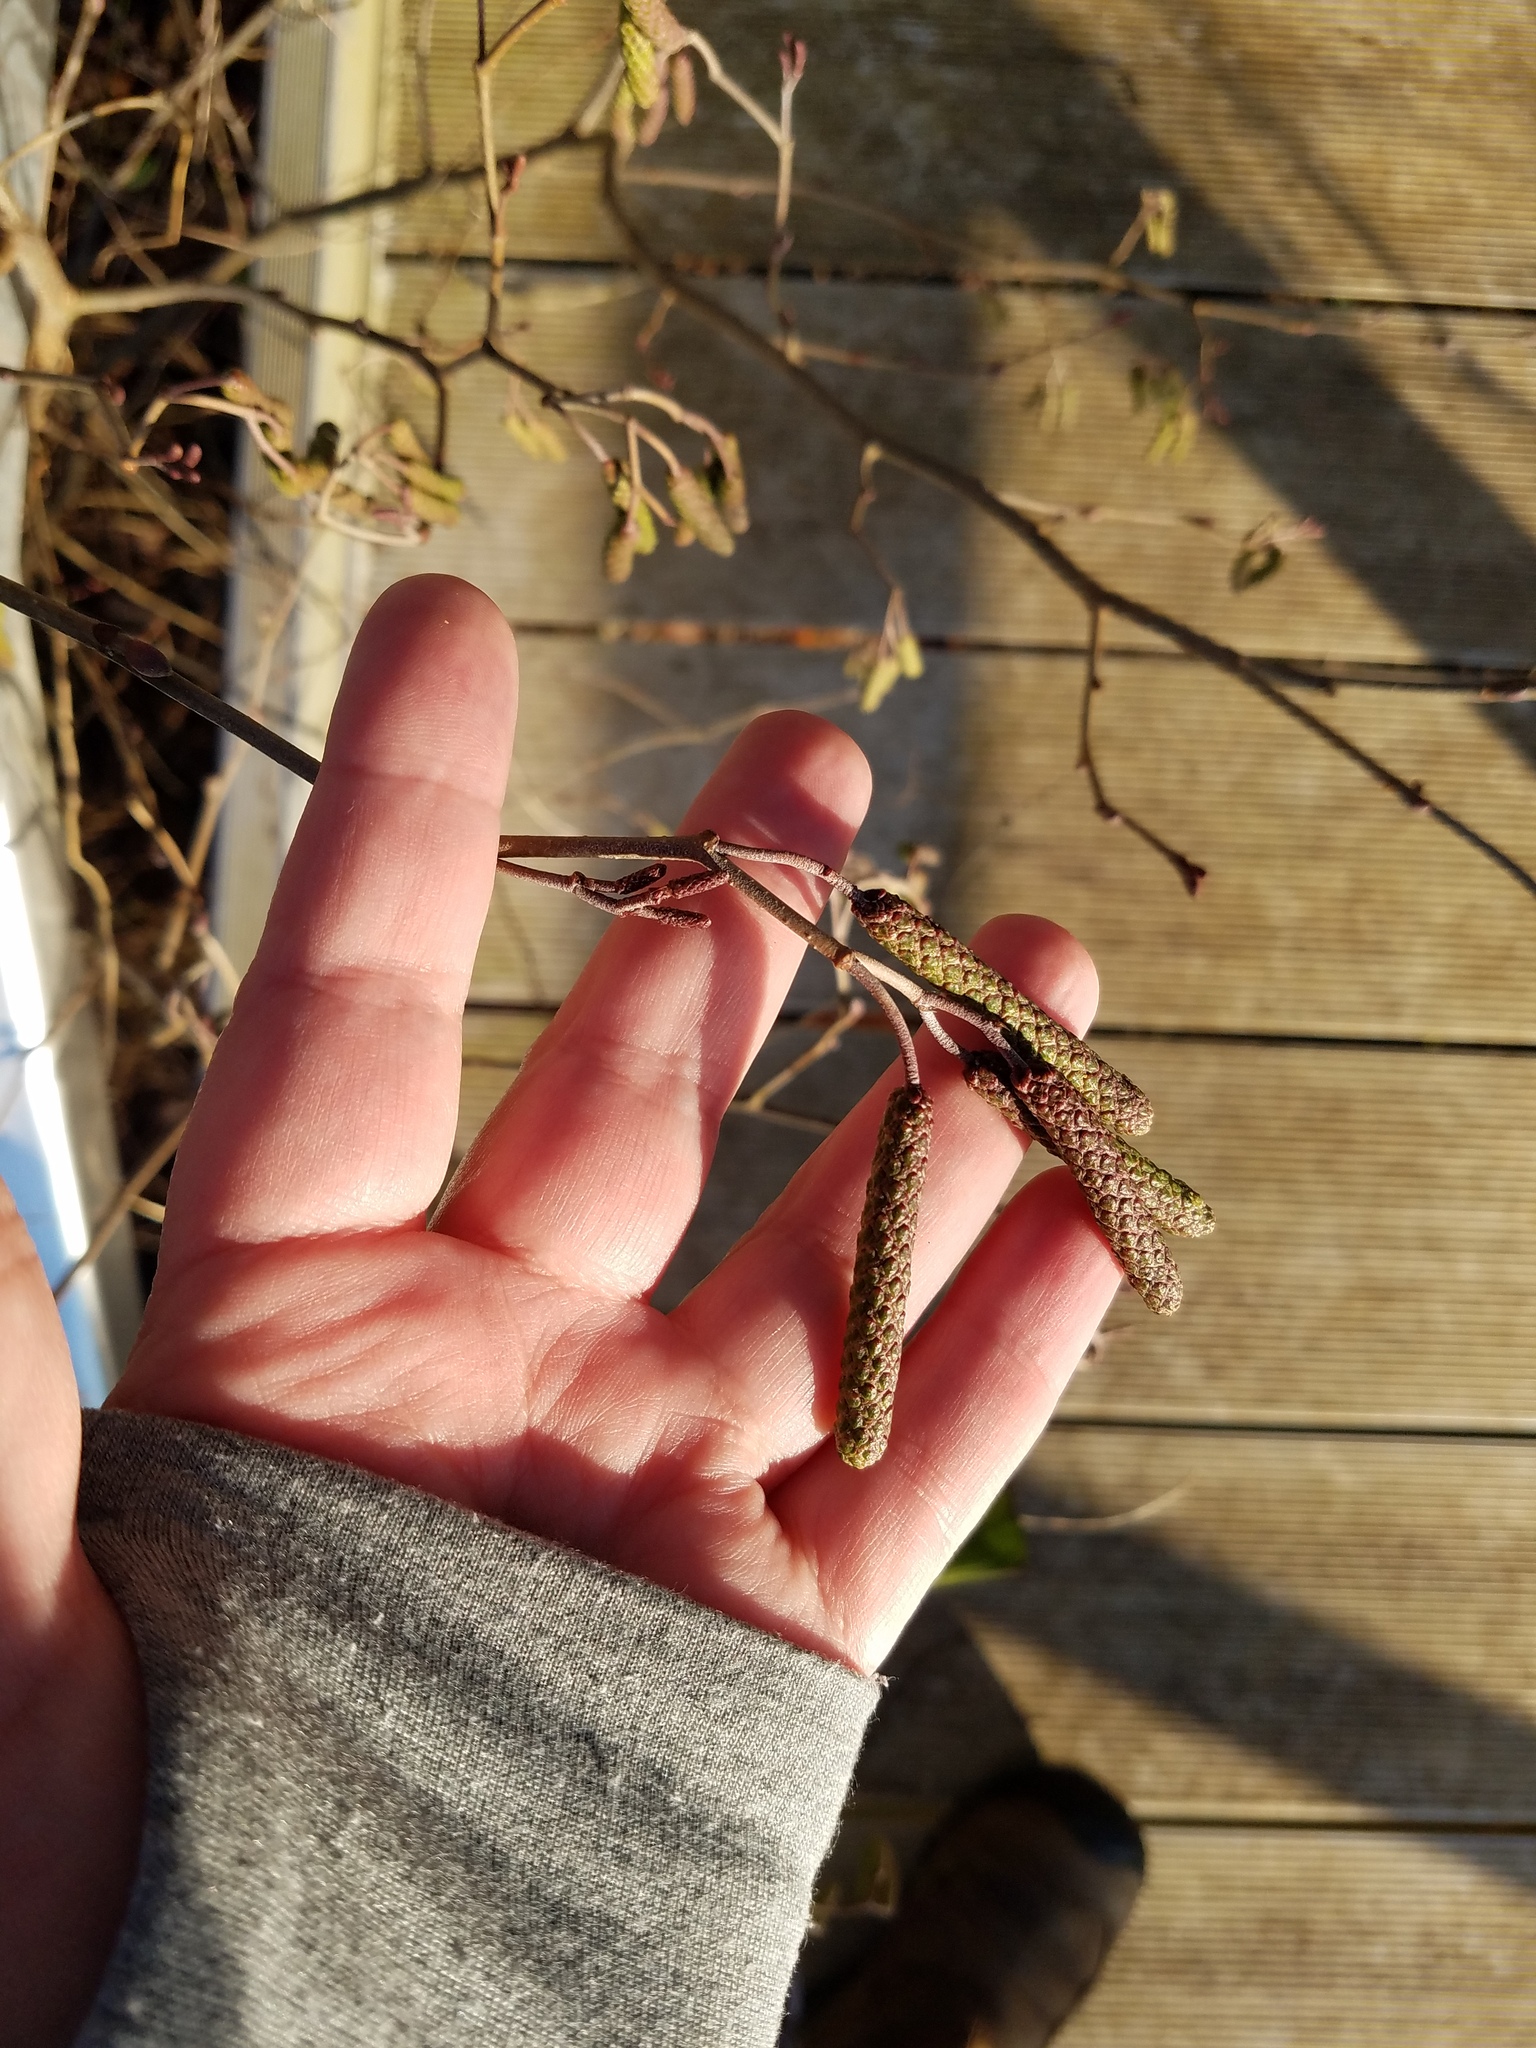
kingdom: Plantae
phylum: Tracheophyta
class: Magnoliopsida
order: Fagales
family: Betulaceae
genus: Alnus
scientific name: Alnus serrulata
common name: Hazel alder
